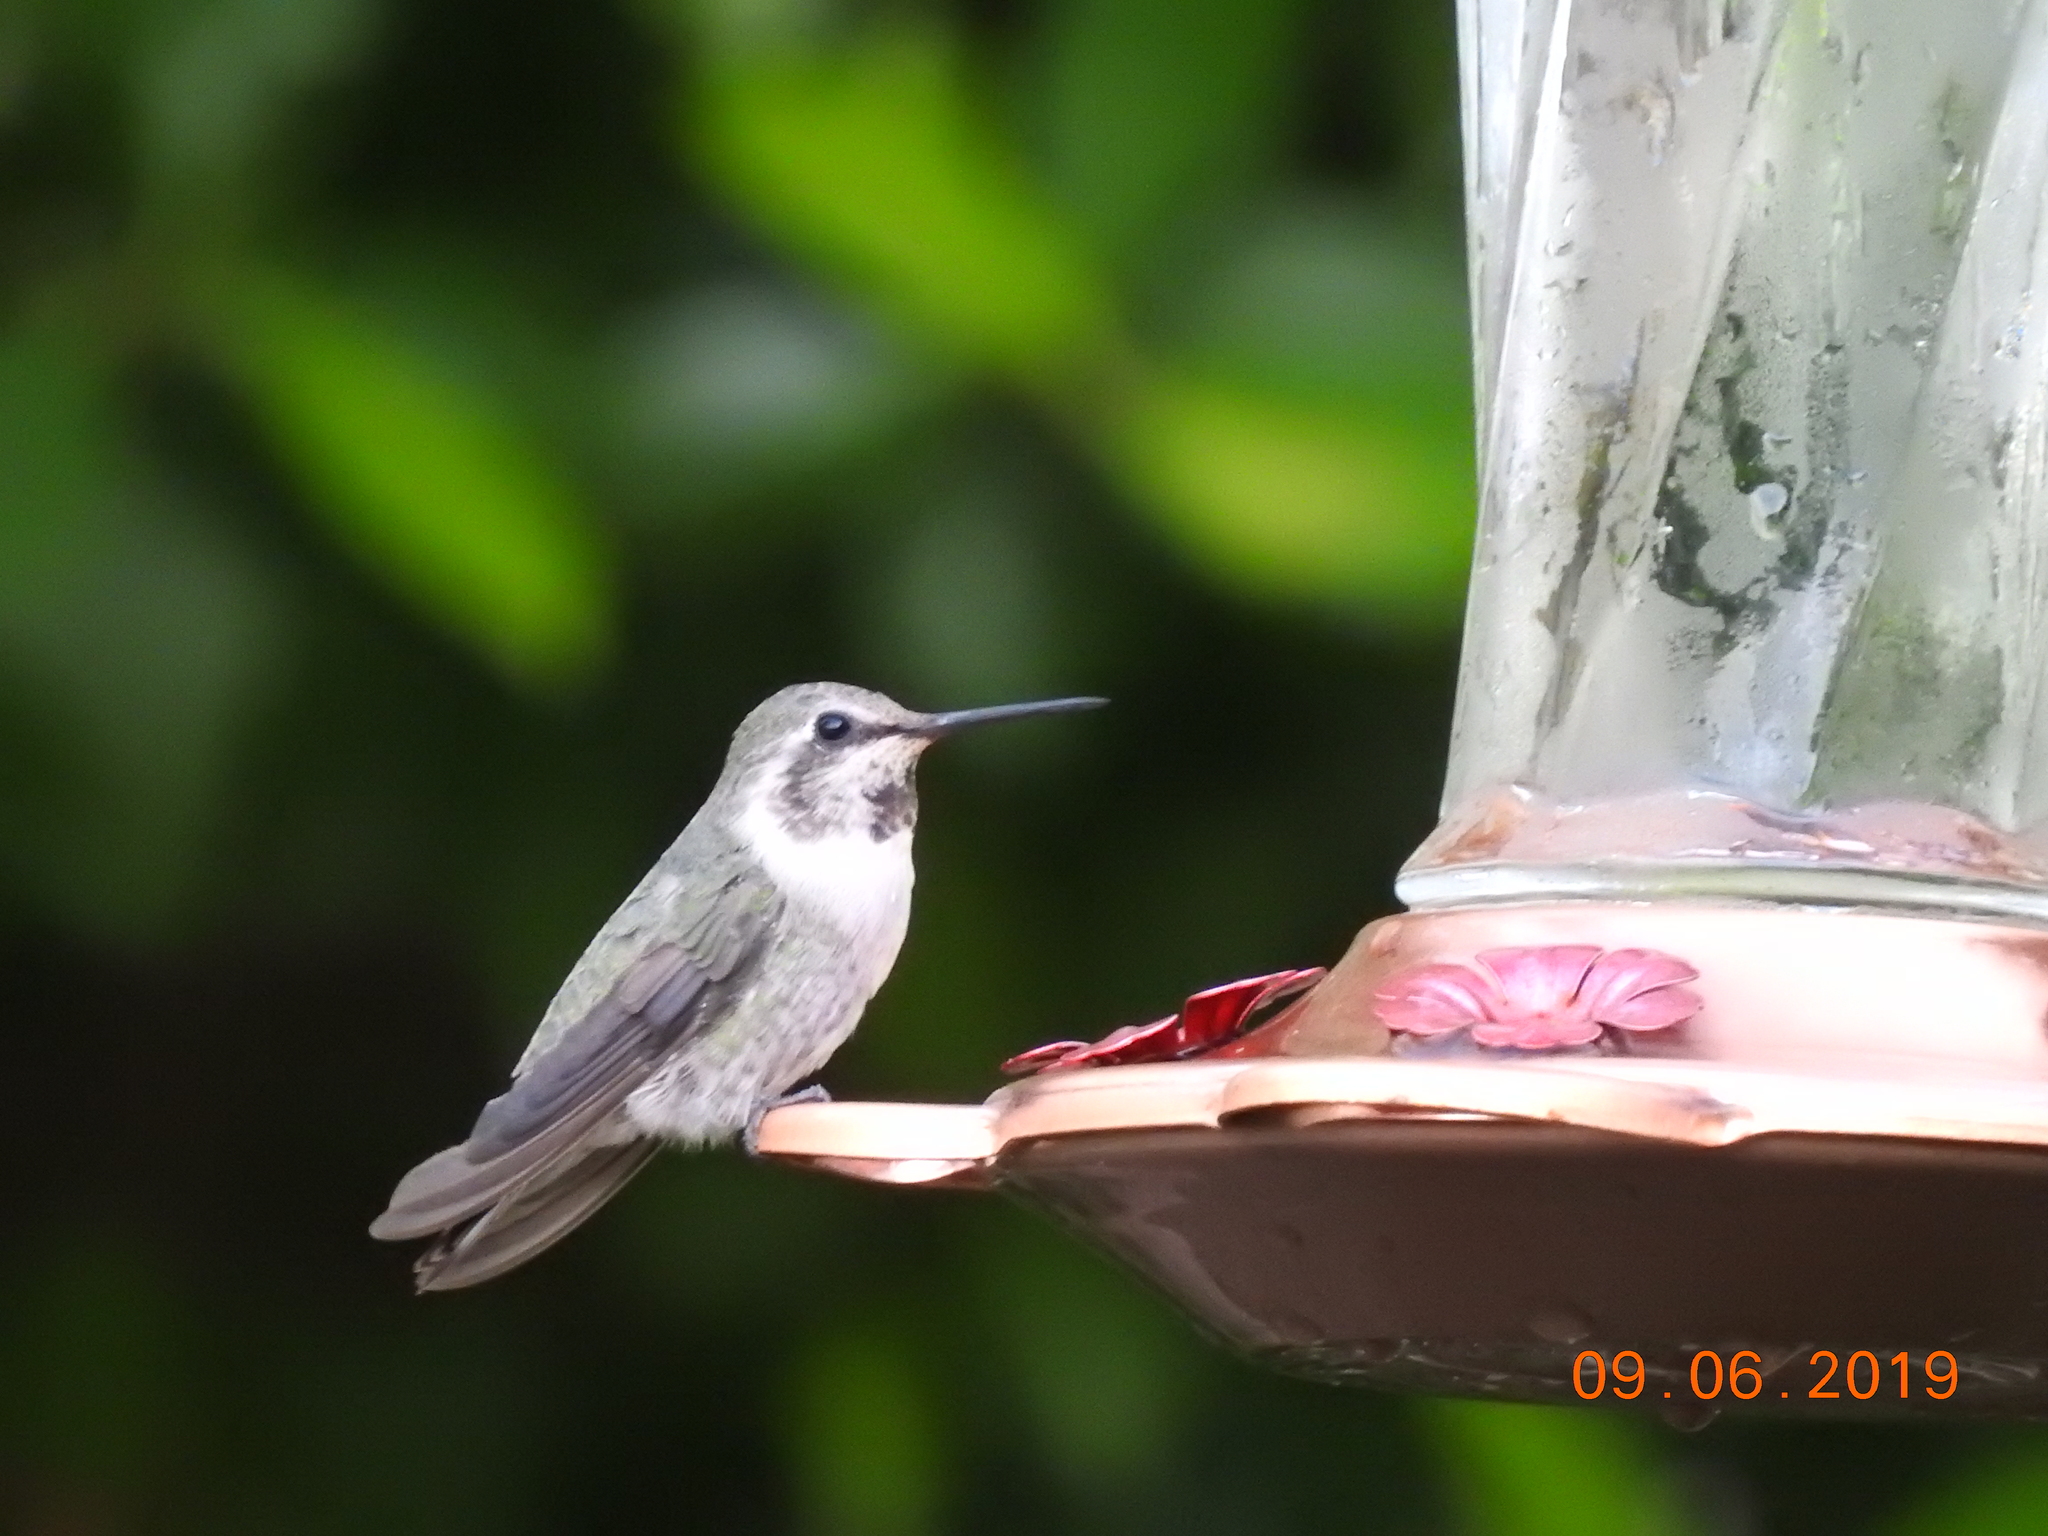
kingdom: Animalia
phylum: Chordata
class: Aves
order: Apodiformes
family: Trochilidae
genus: Calypte
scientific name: Calypte costae
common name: Costa's hummingbird
